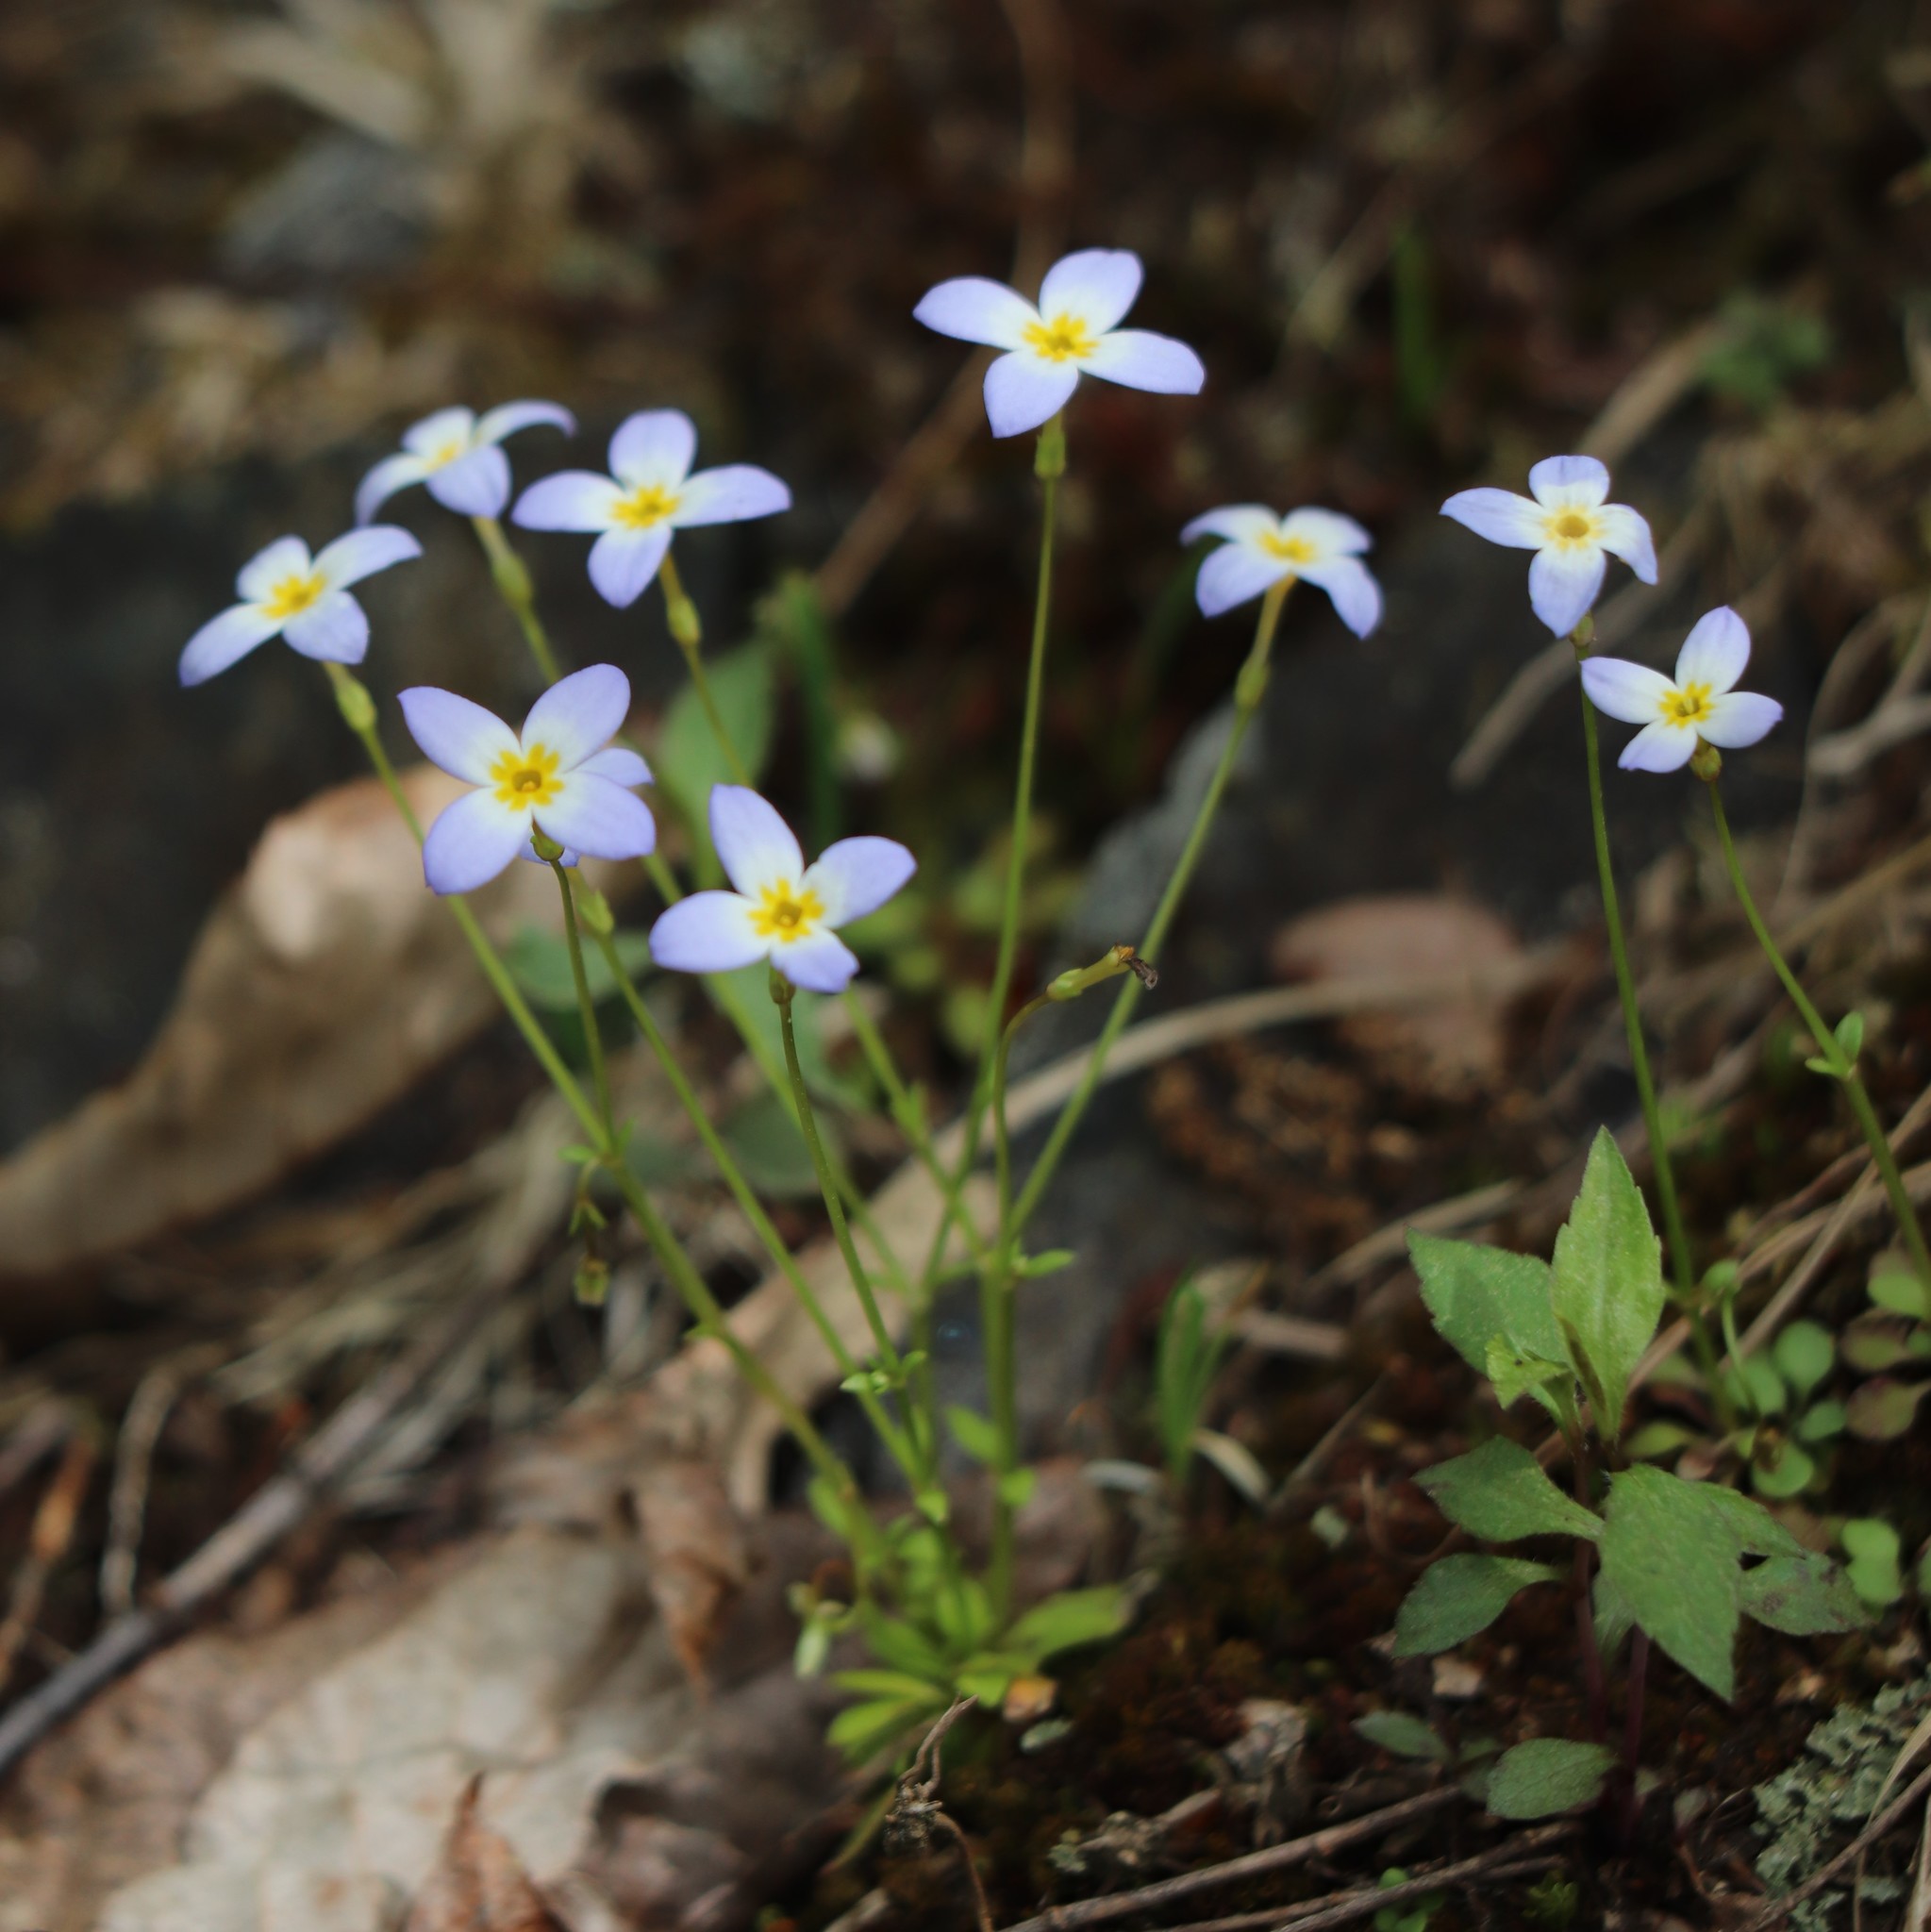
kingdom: Plantae
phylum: Tracheophyta
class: Magnoliopsida
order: Gentianales
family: Rubiaceae
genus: Houstonia
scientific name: Houstonia caerulea
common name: Bluets
